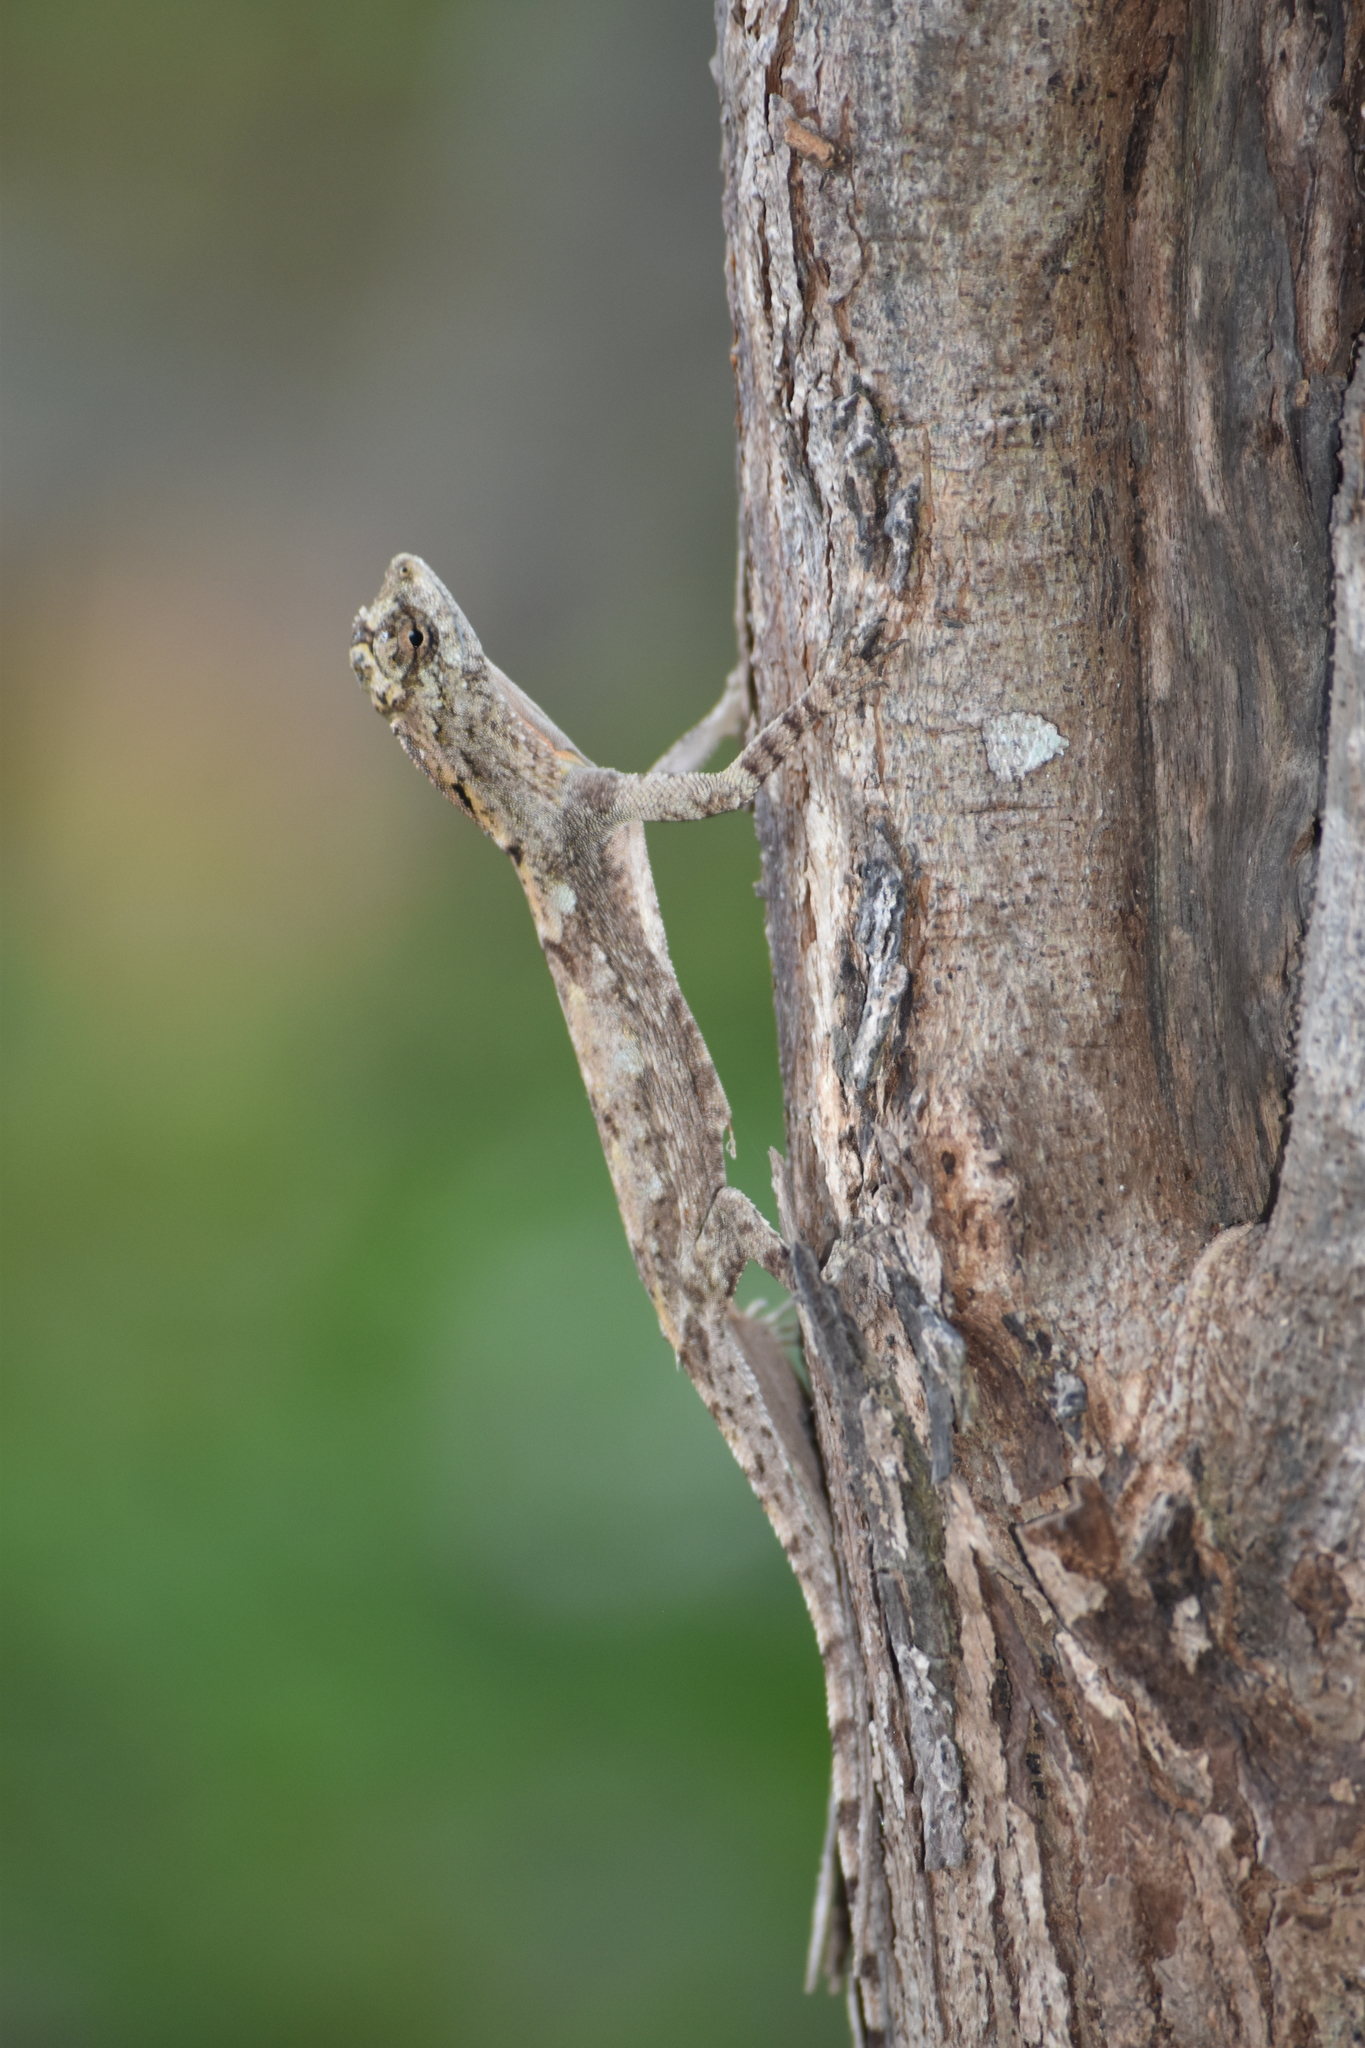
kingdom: Animalia
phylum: Chordata
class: Squamata
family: Agamidae
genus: Draco
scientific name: Draco maculatus
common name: Spotted flying dragon
